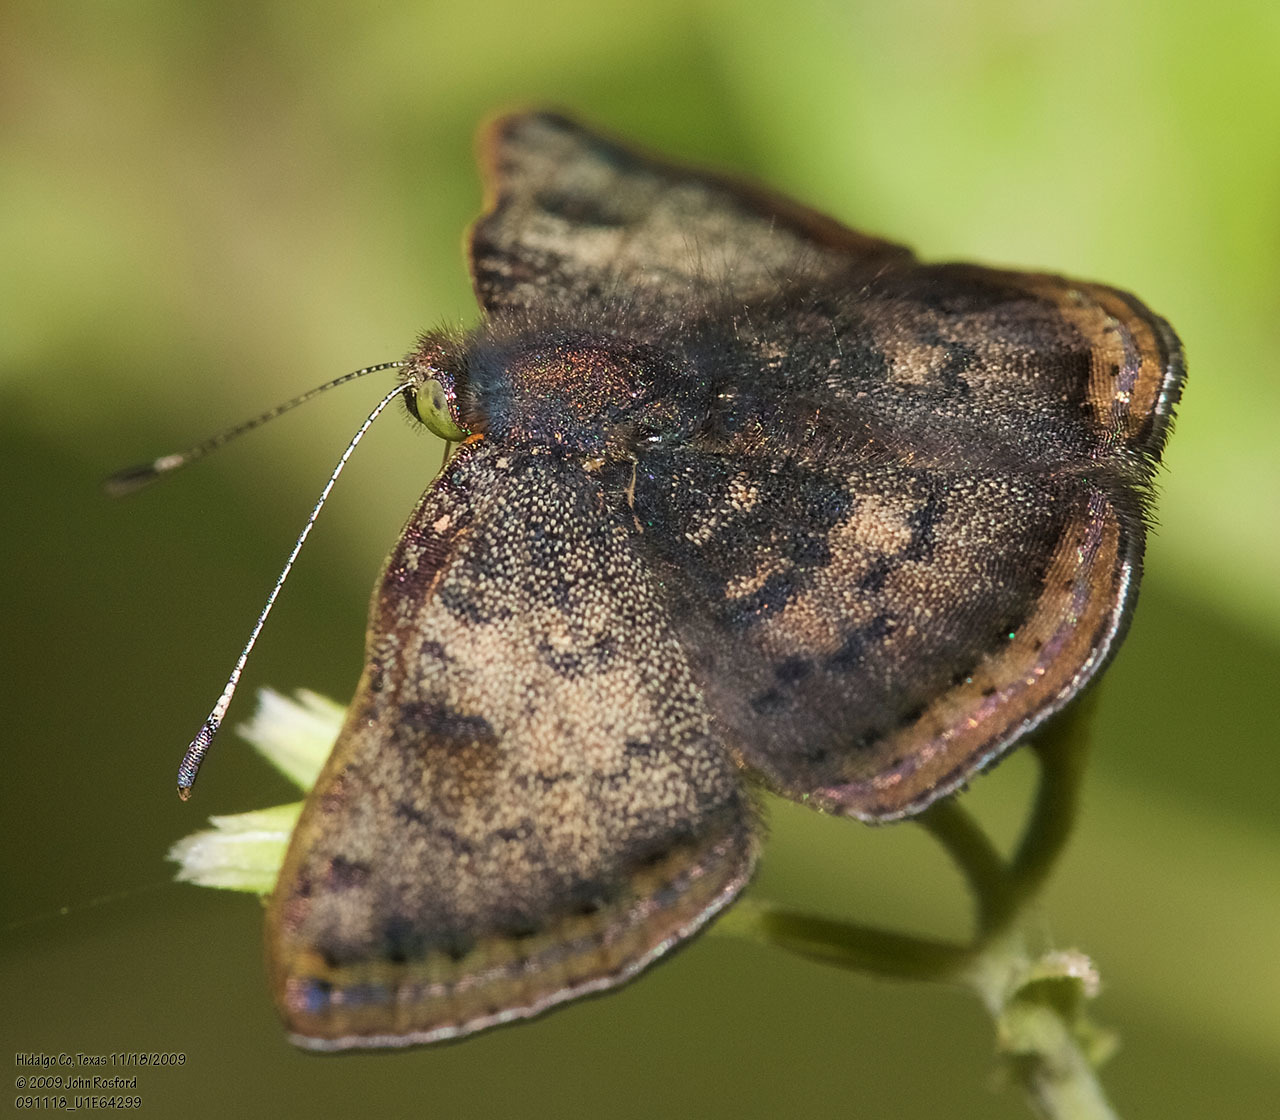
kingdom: Animalia
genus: Caria
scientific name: Caria ino
